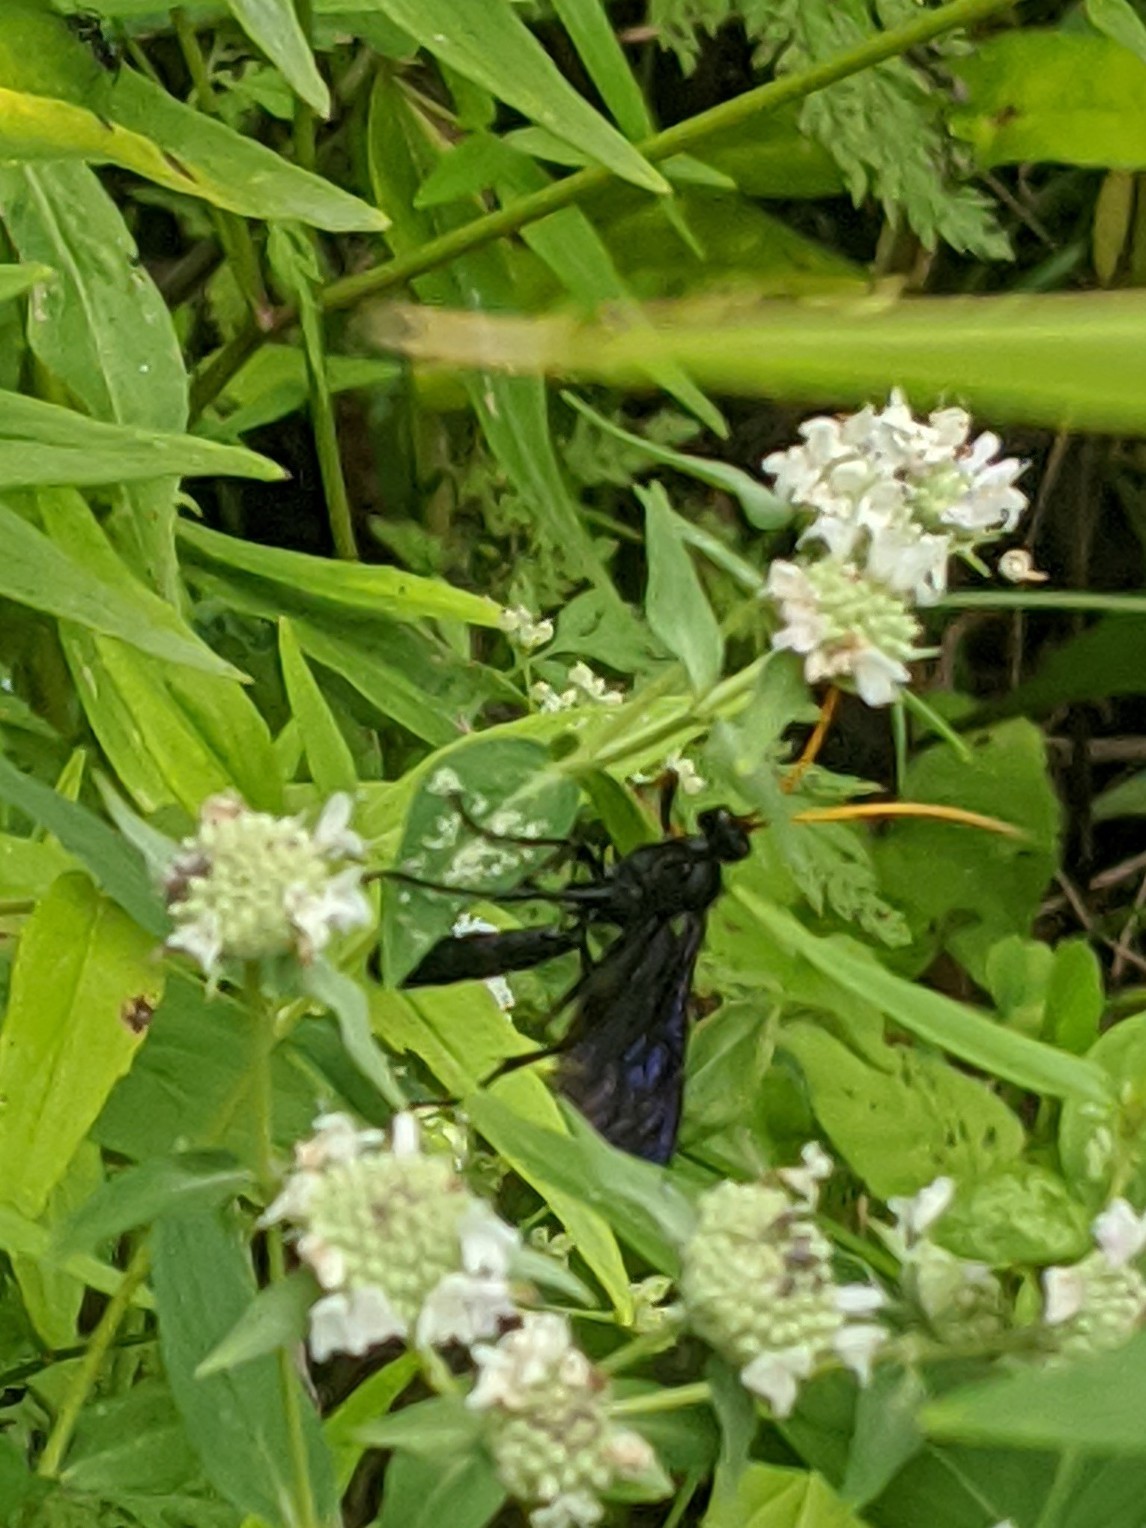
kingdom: Animalia
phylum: Arthropoda
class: Insecta
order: Hymenoptera
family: Ichneumonidae
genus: Gnamptopelta
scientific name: Gnamptopelta obsidianator
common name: Bent-shielded besieger wasp
